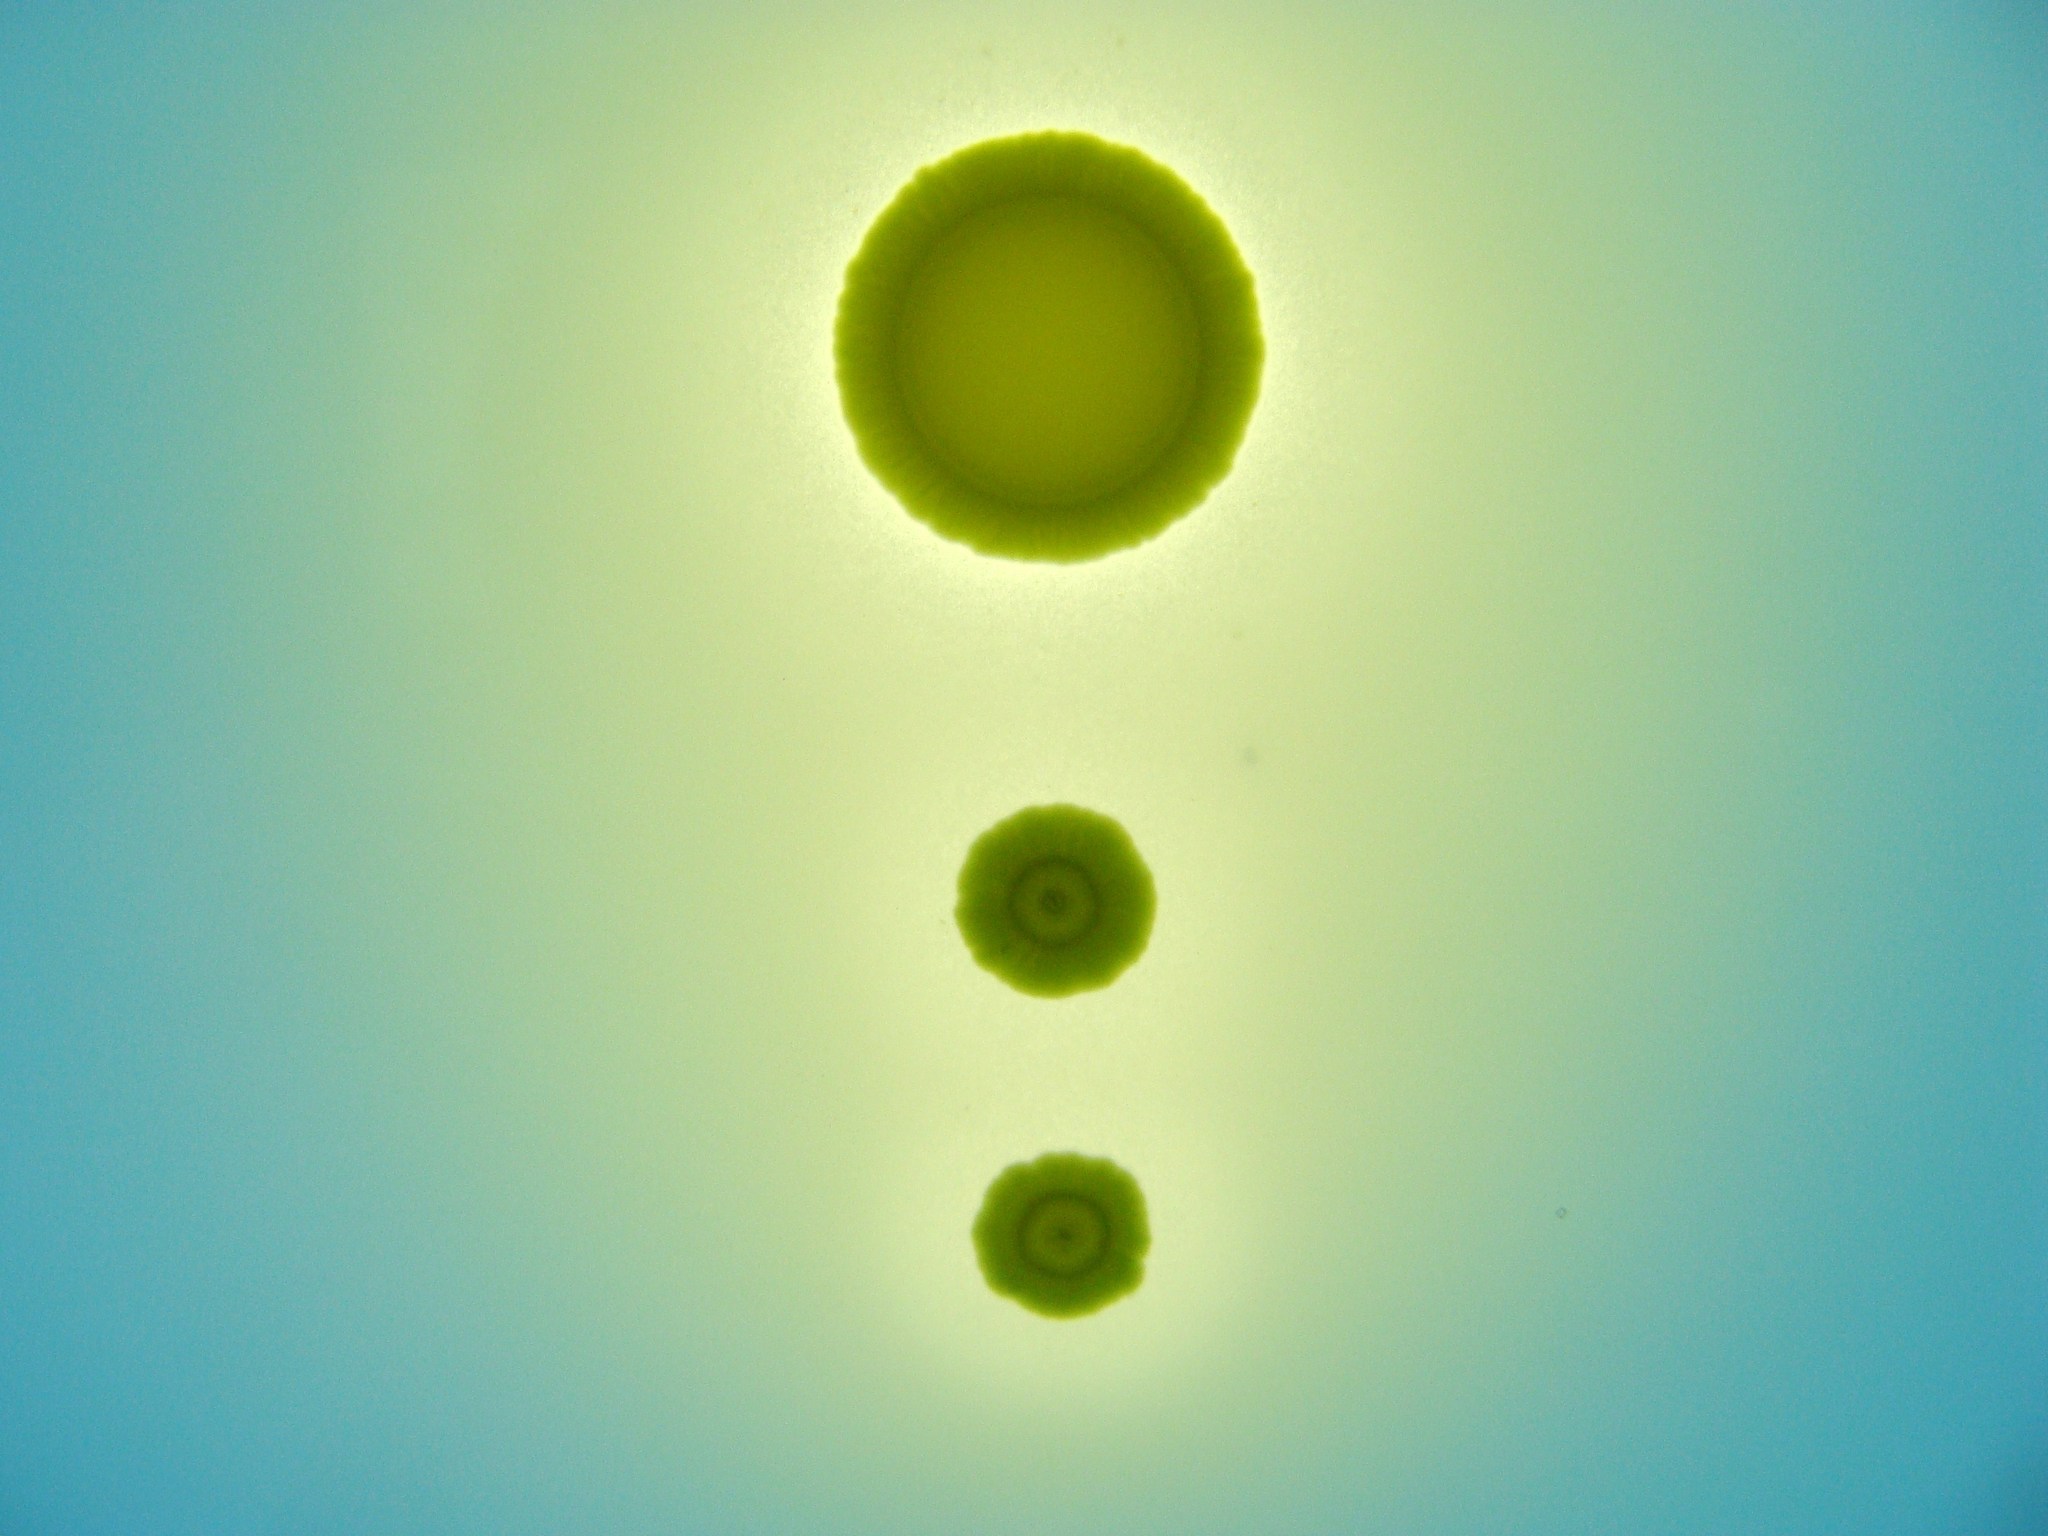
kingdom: Bacteria
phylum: Proteobacteria
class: Gammaproteobacteria
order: Pseudomonadales
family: Pseudomonadaceae
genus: Pseudomonas
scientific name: Pseudomonas fluorescens
